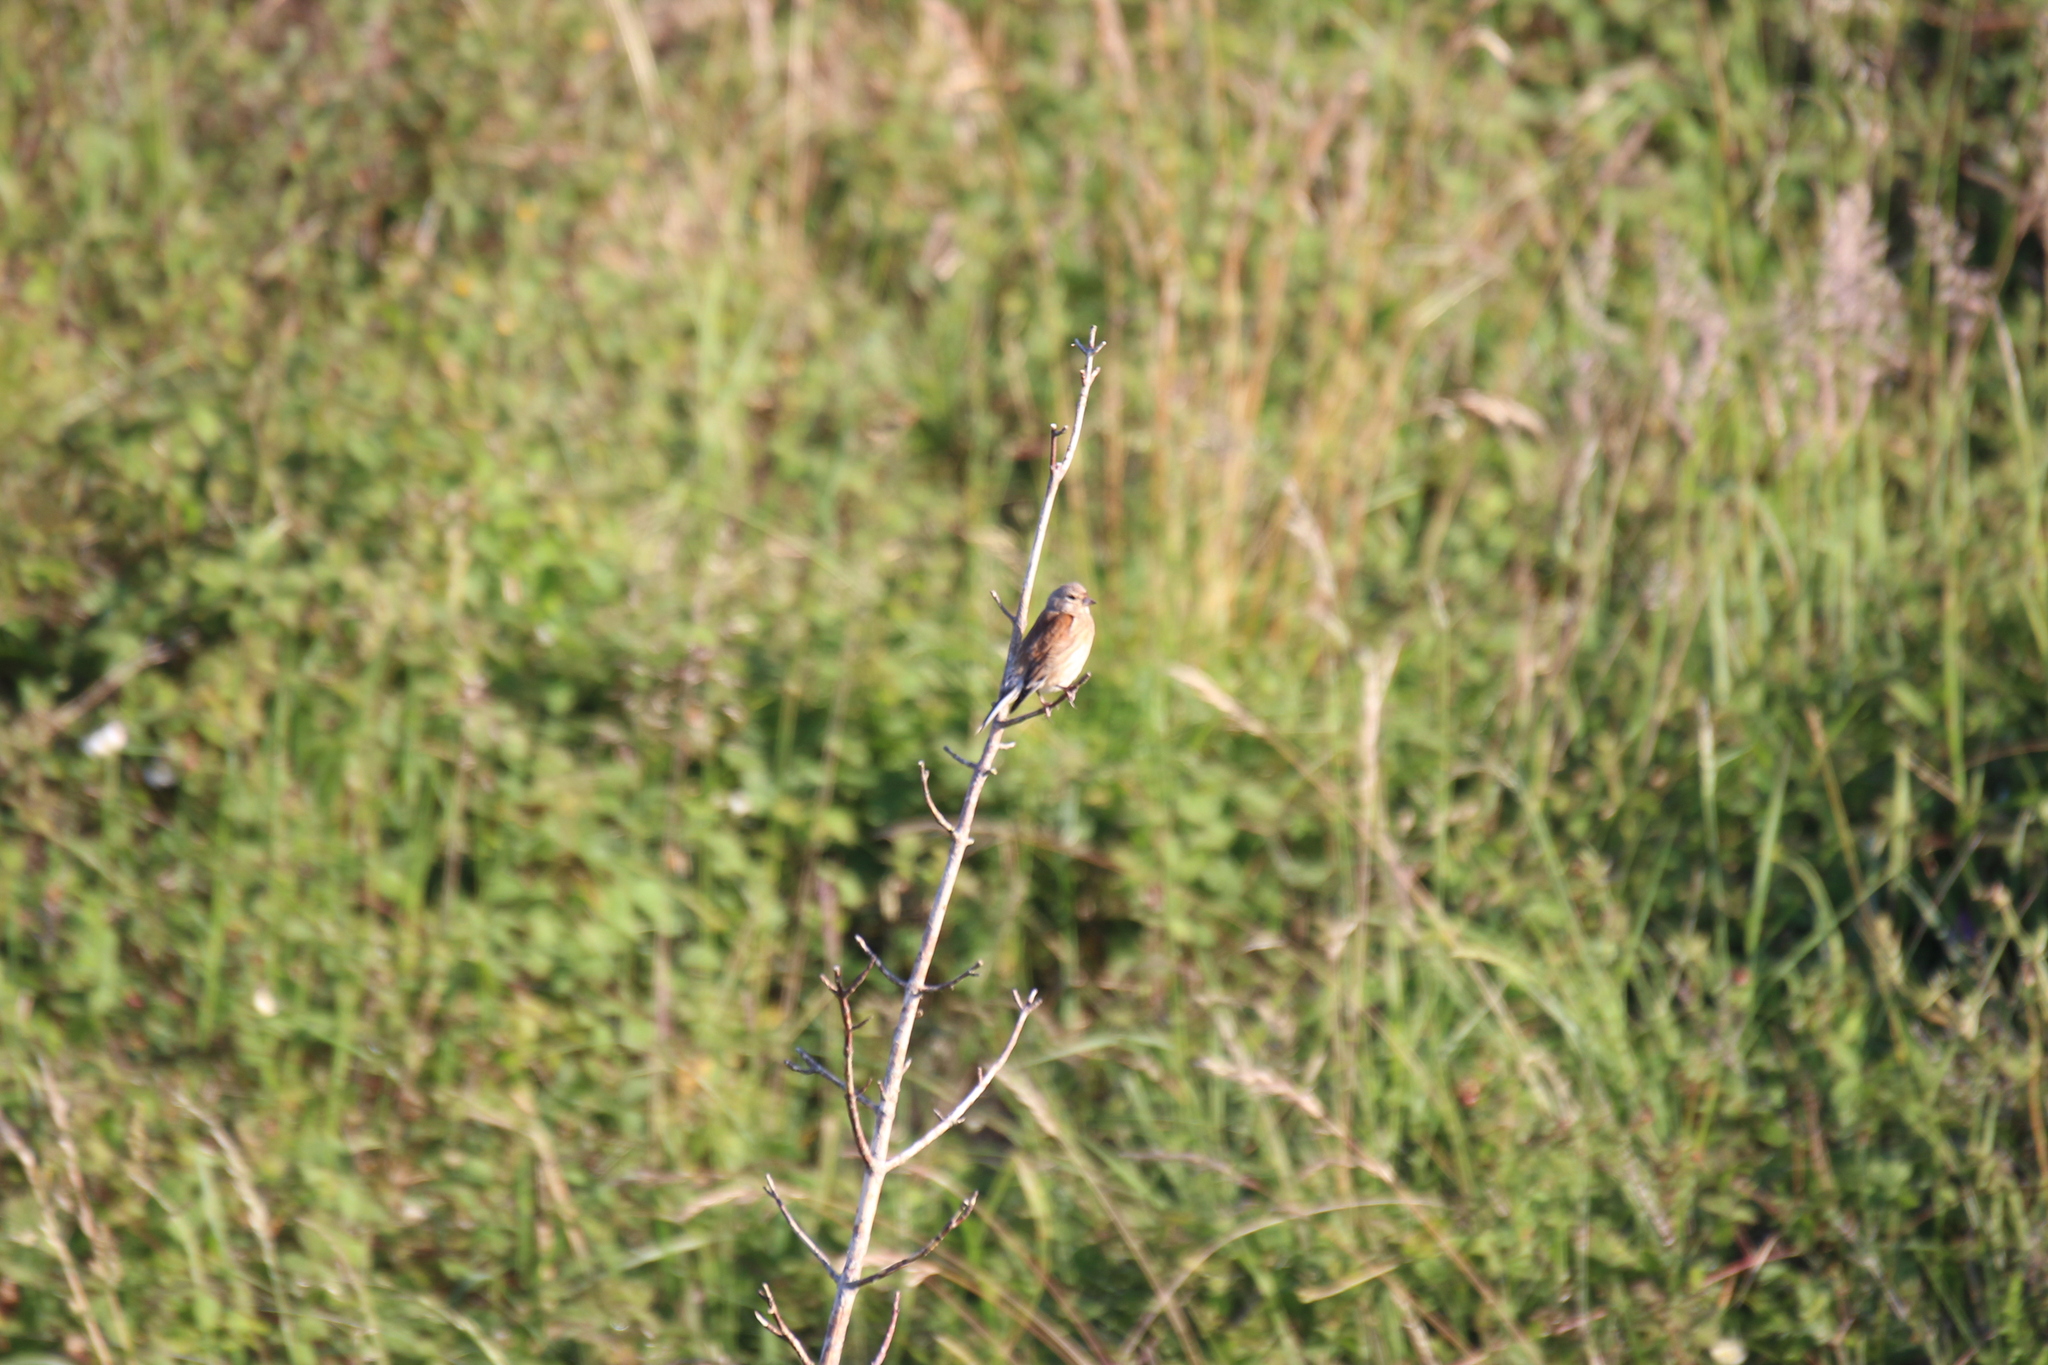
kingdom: Animalia
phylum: Chordata
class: Aves
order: Passeriformes
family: Fringillidae
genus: Linaria
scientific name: Linaria cannabina
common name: Common linnet
